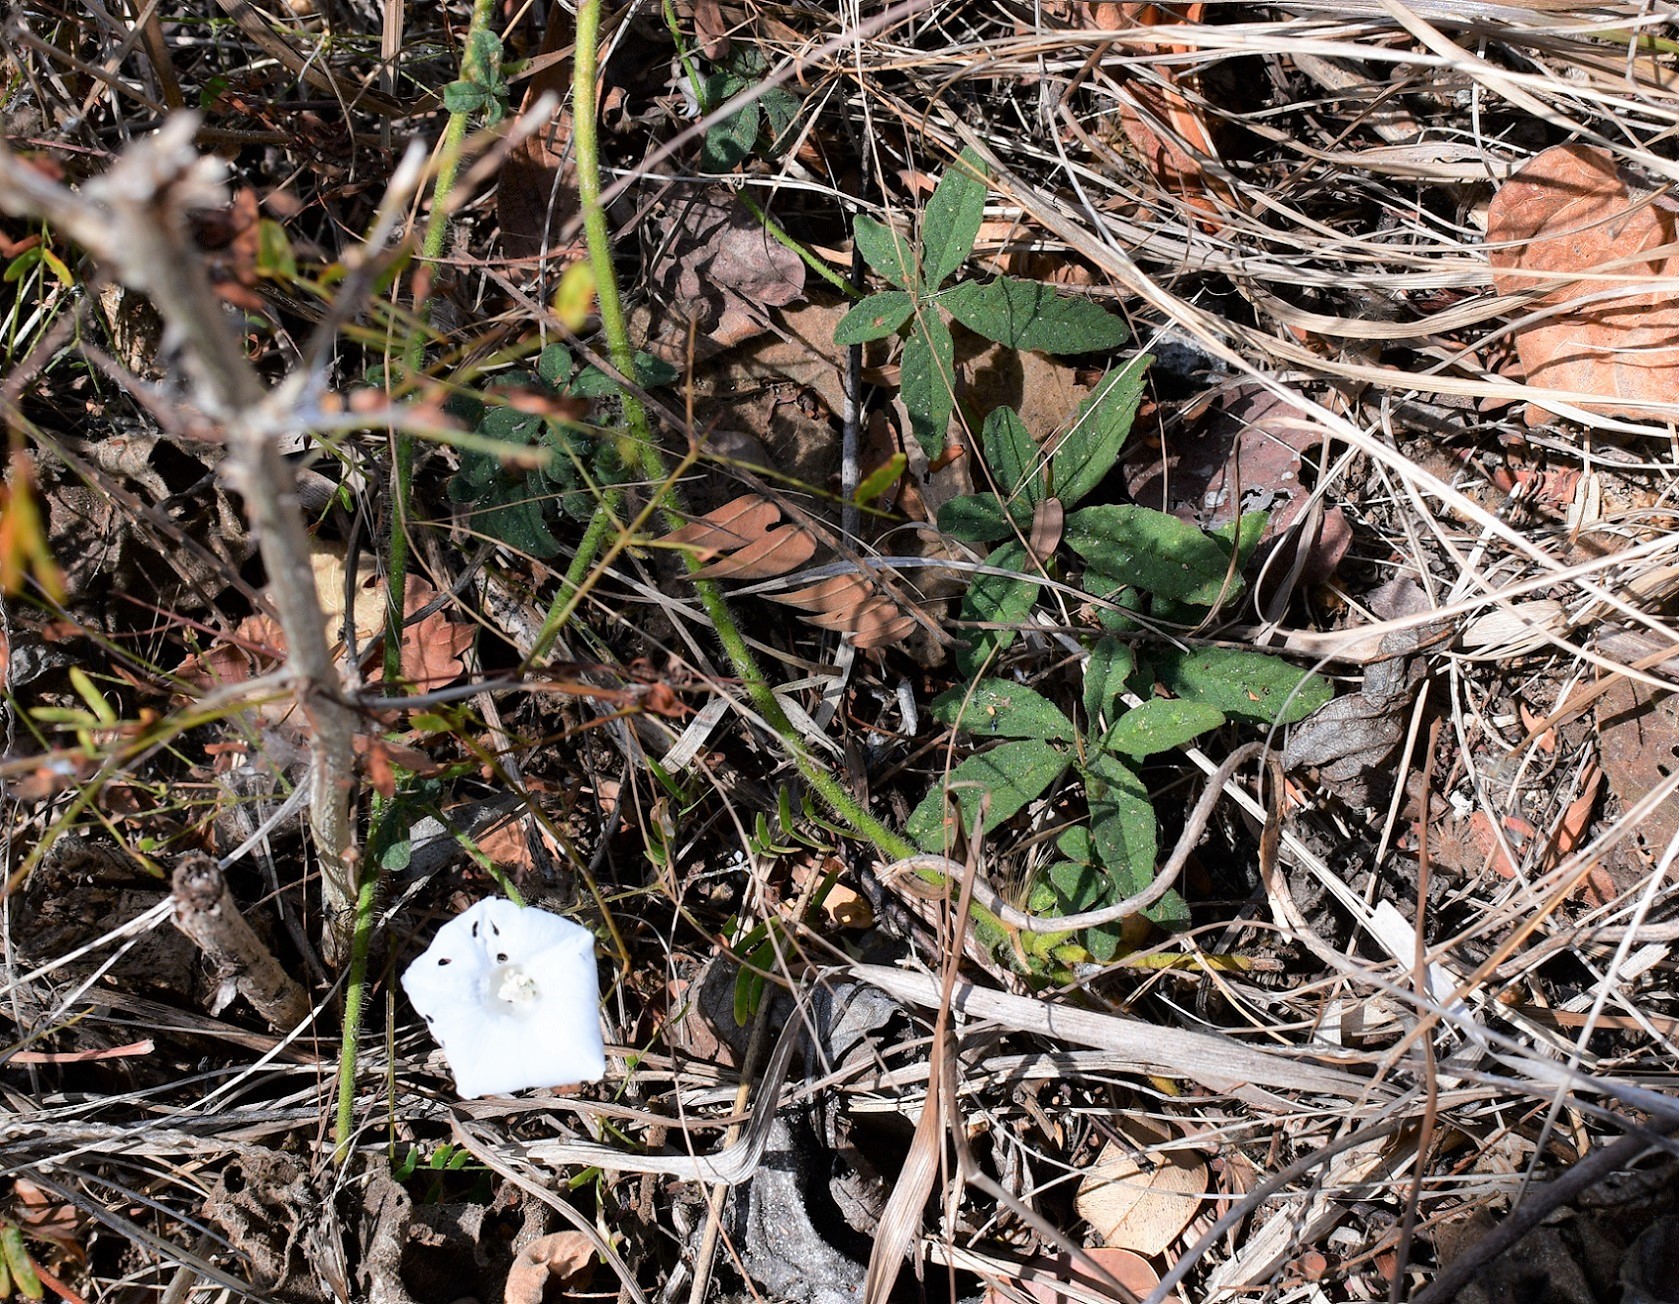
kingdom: Plantae
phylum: Tracheophyta
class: Magnoliopsida
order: Solanales
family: Convolvulaceae
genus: Distimake
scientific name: Distimake cissoides
